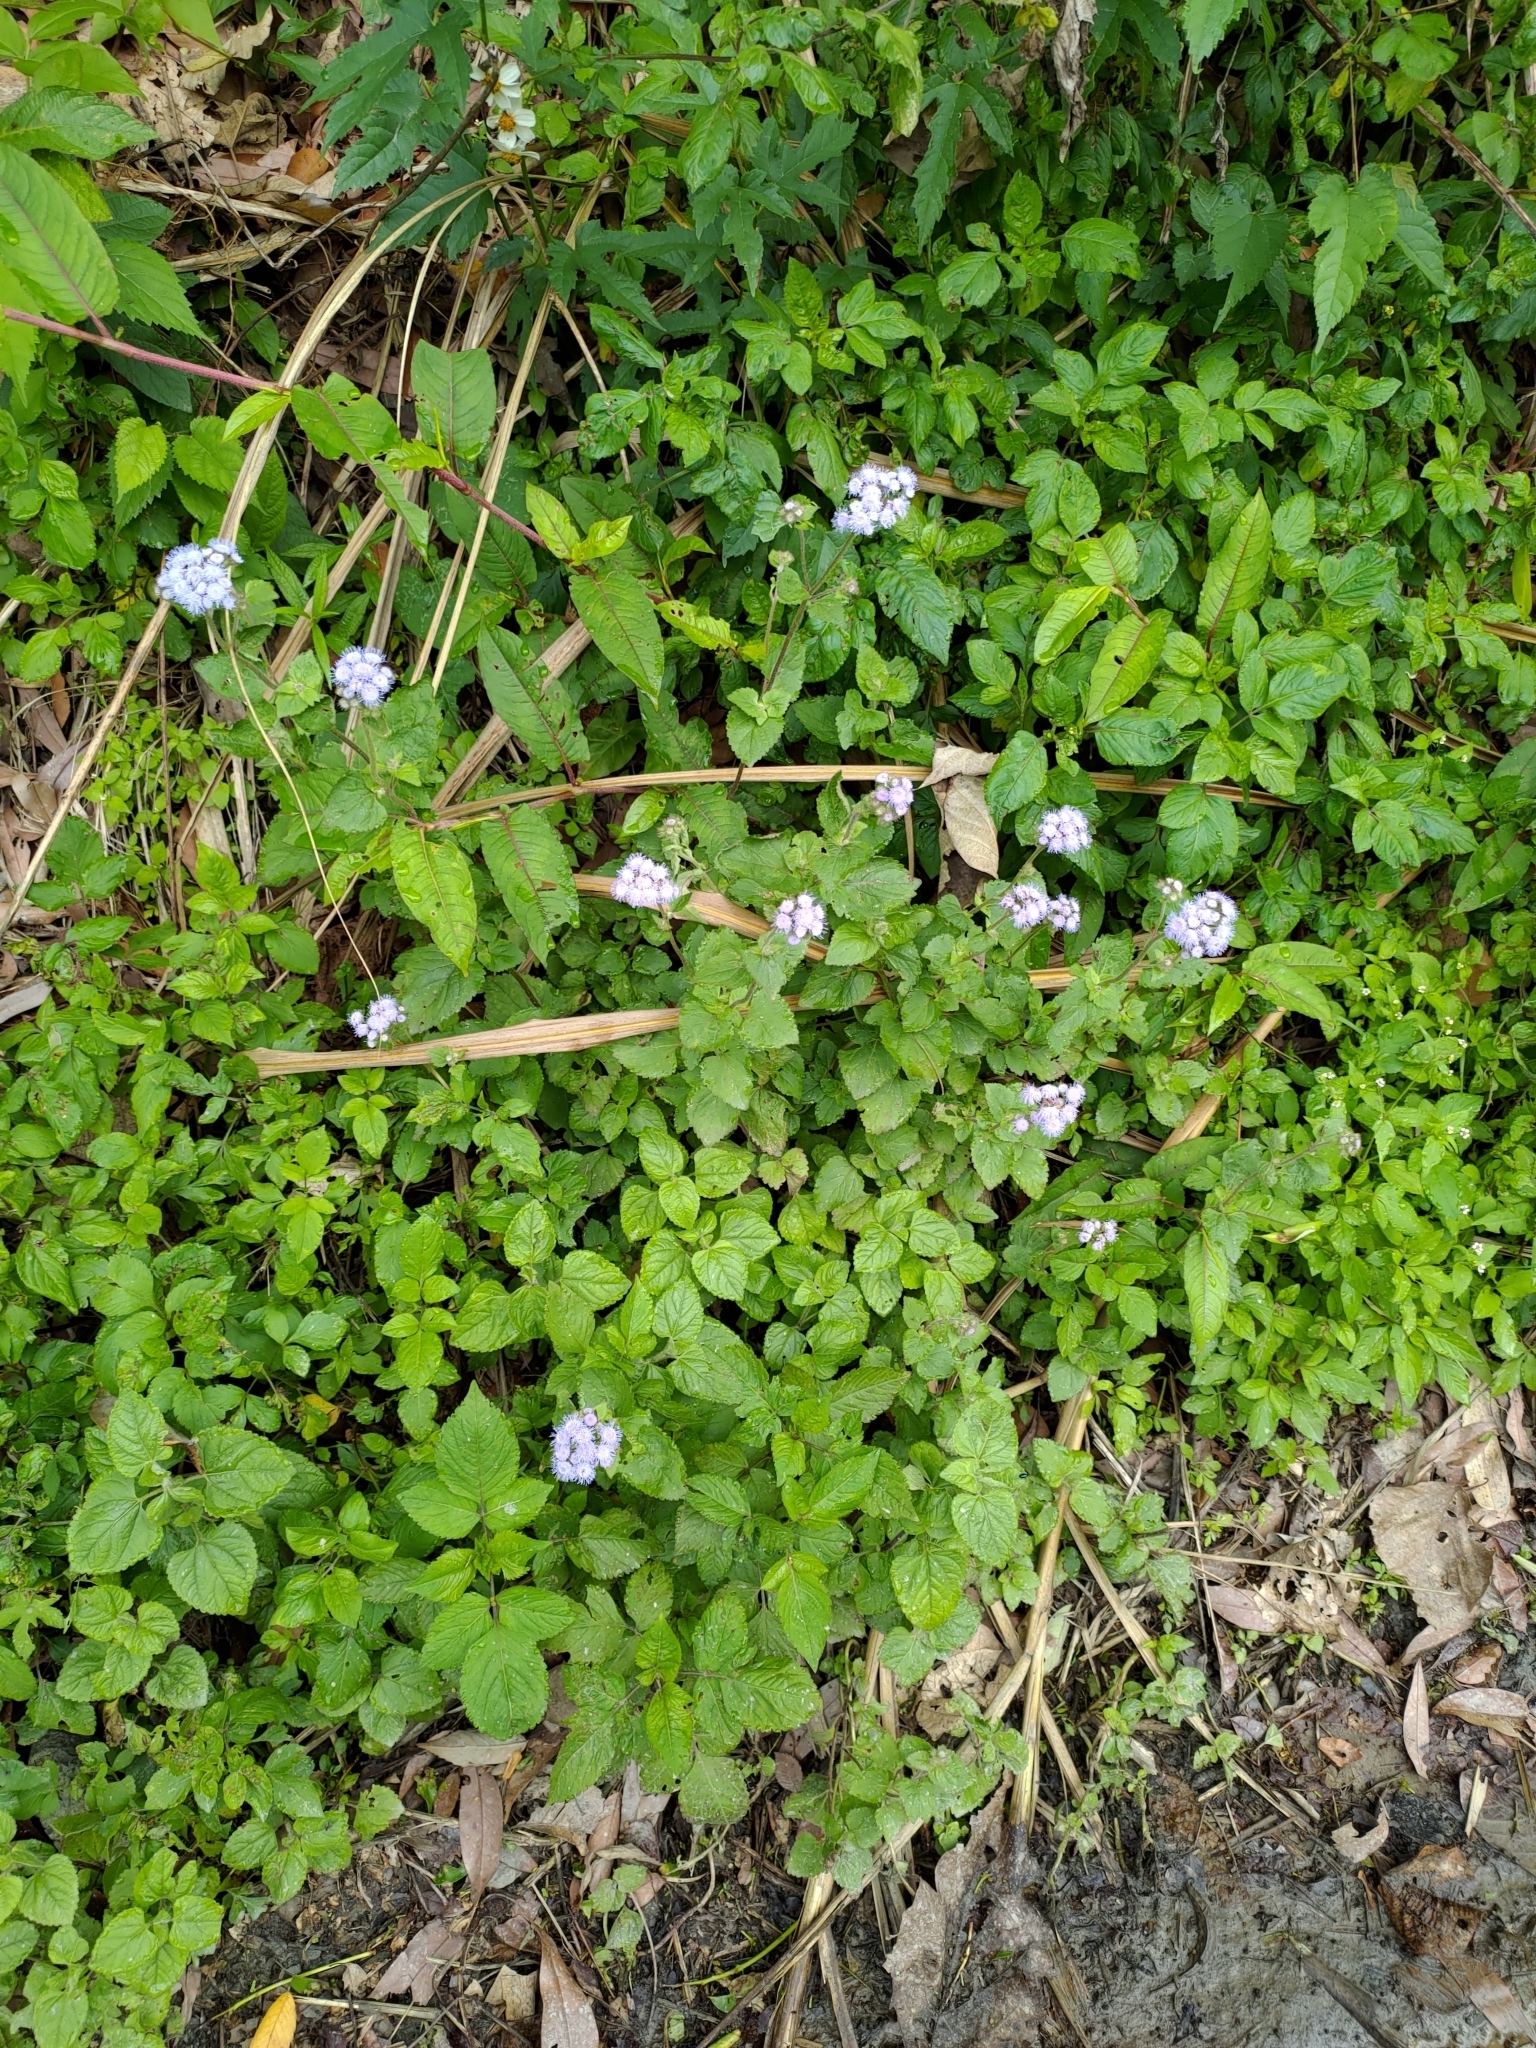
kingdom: Plantae
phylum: Tracheophyta
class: Magnoliopsida
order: Asterales
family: Asteraceae
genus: Ageratum
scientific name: Ageratum houstonianum
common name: Bluemink
